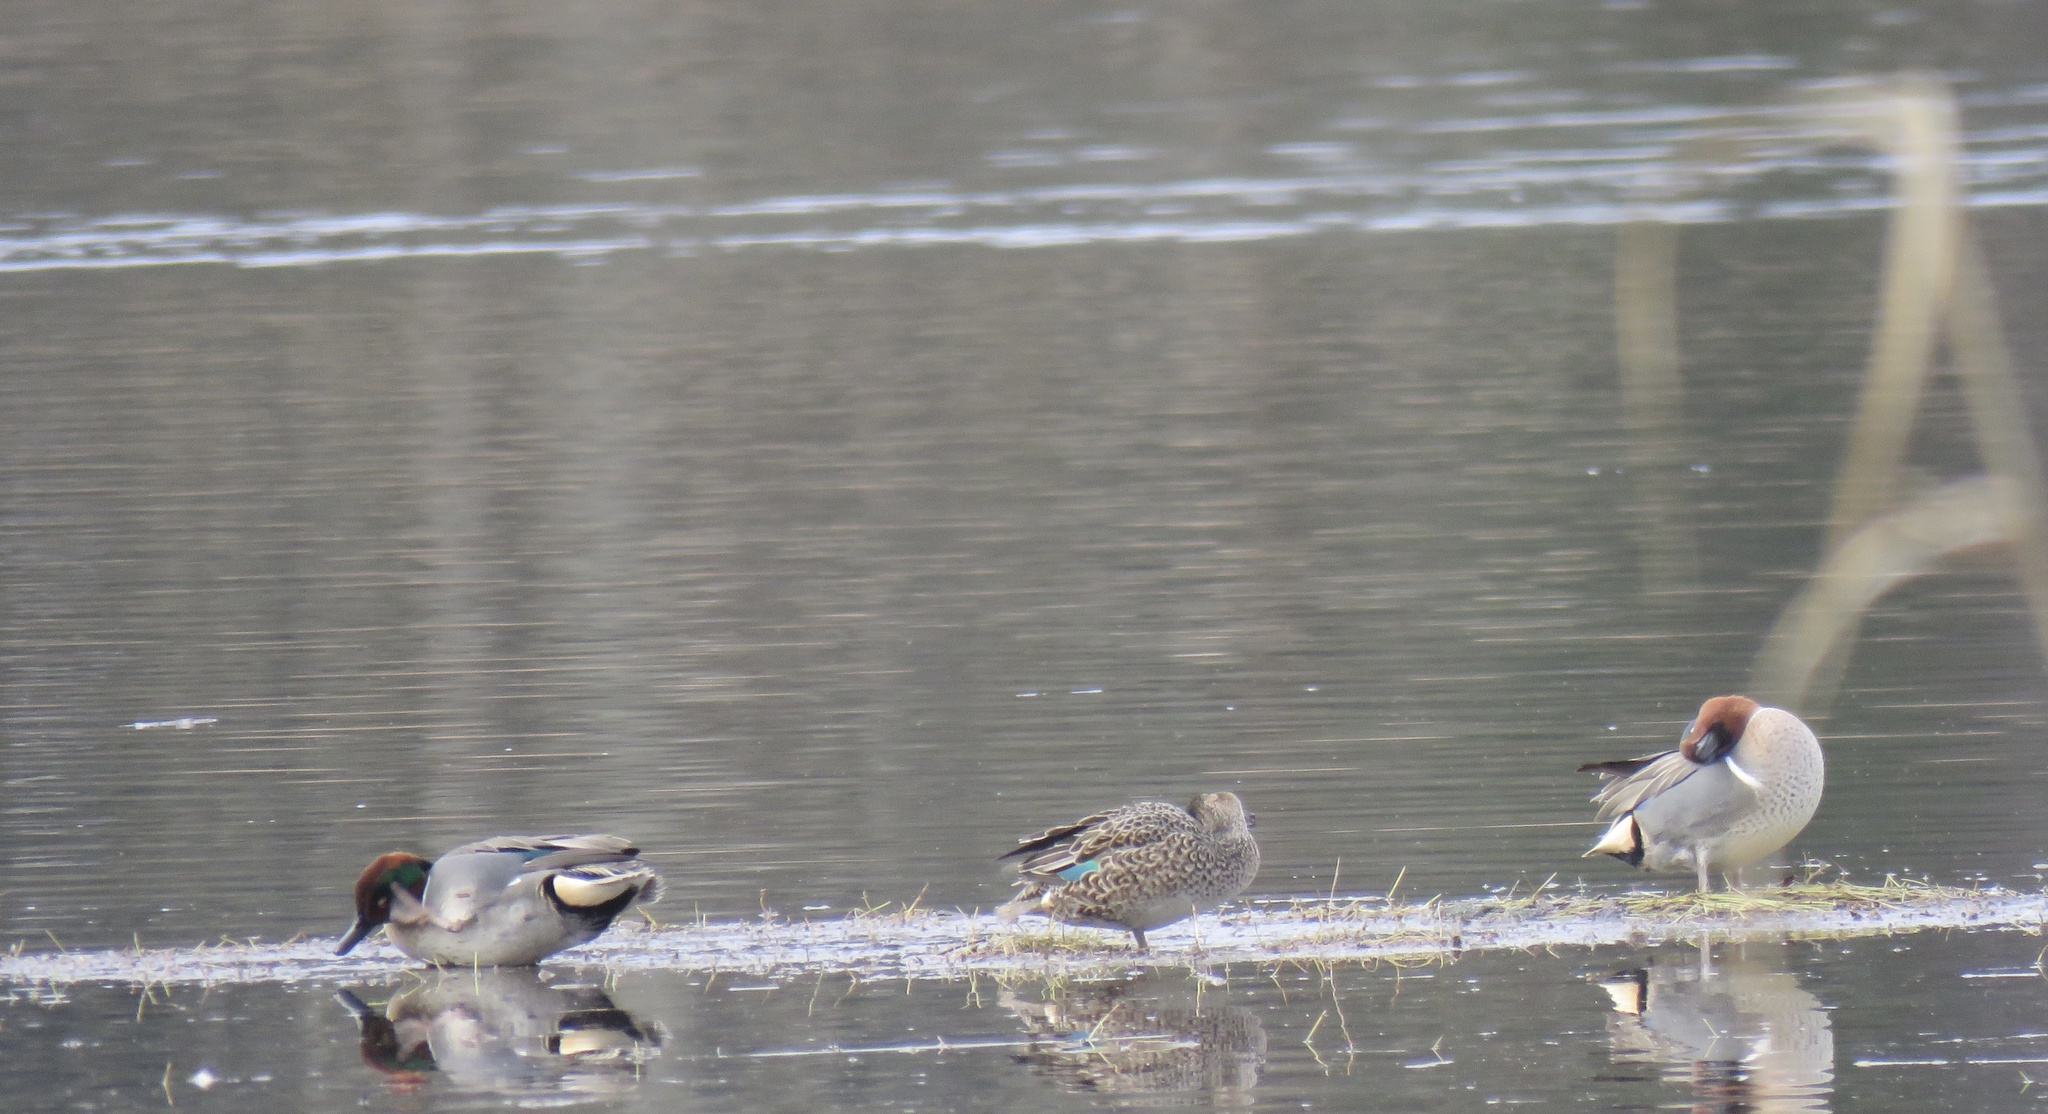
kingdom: Animalia
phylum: Chordata
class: Aves
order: Anseriformes
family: Anatidae
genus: Anas
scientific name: Anas crecca
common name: Eurasian teal
